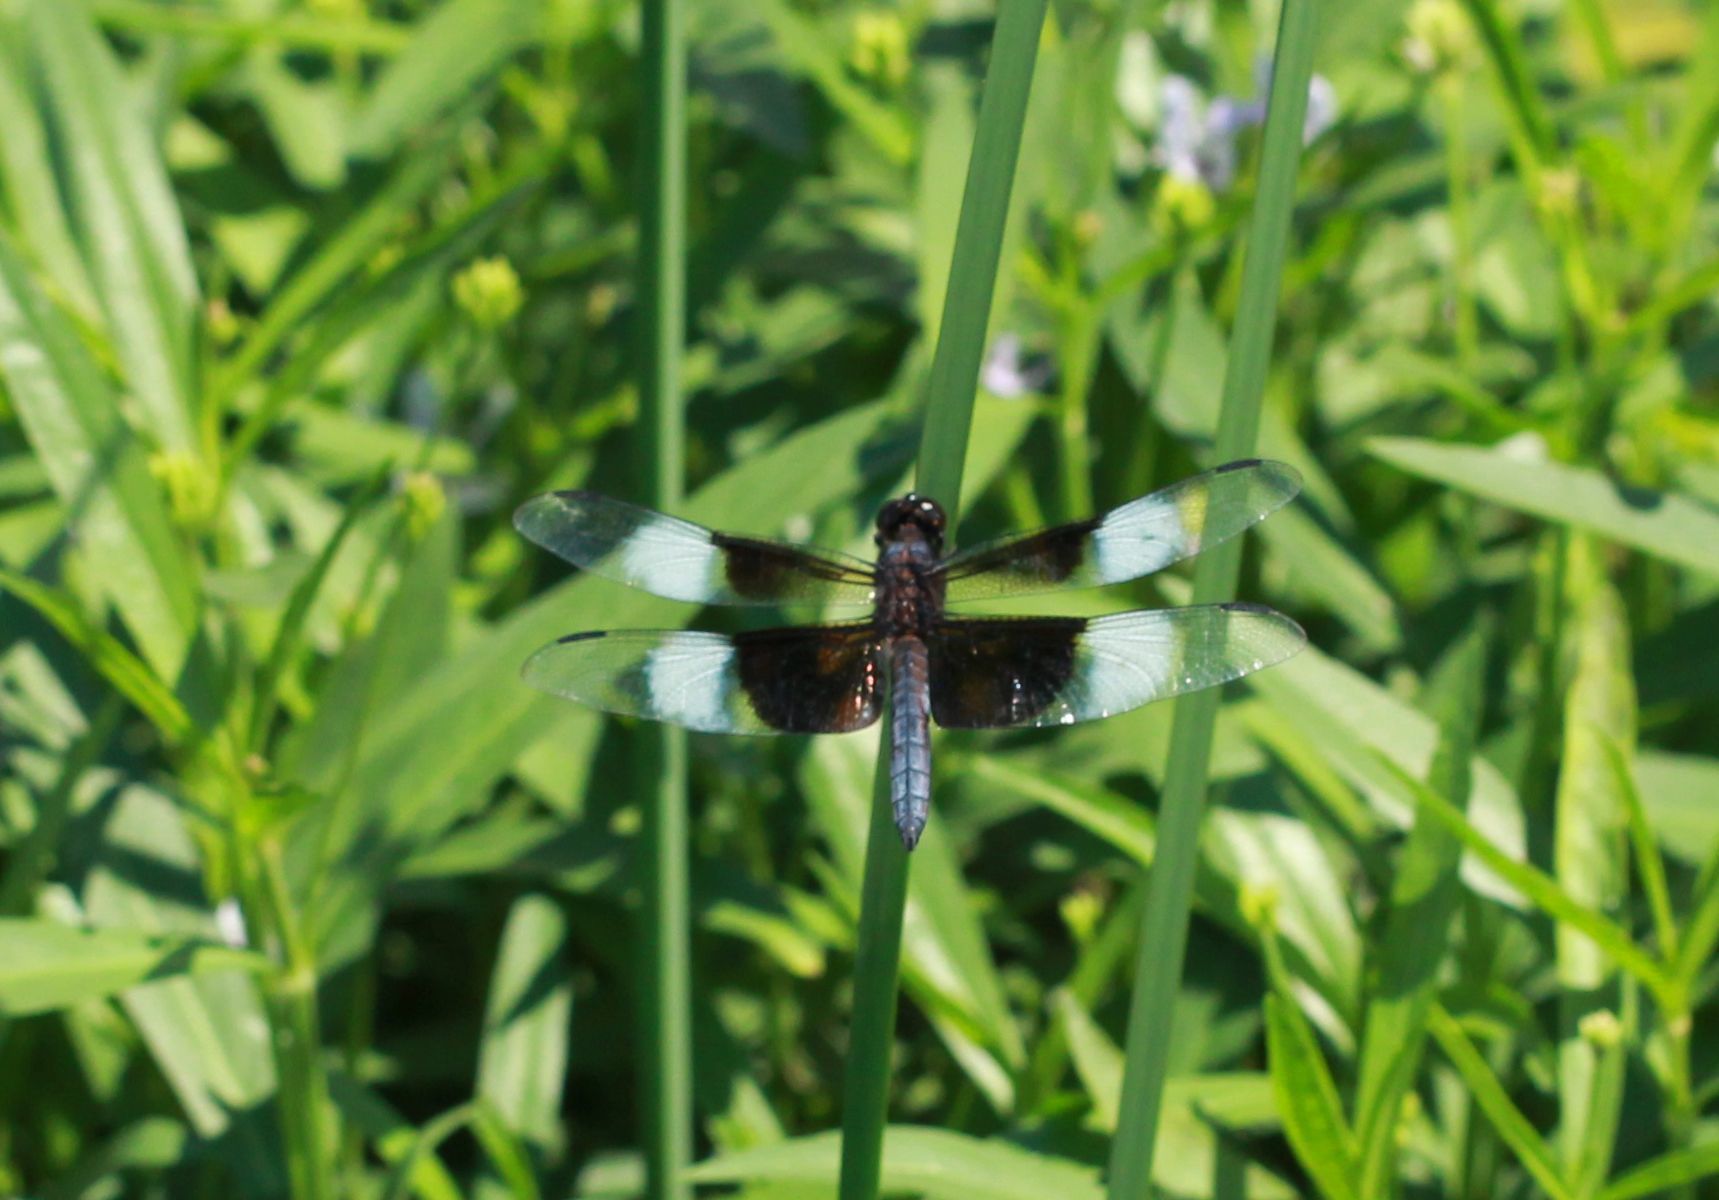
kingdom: Animalia
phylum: Arthropoda
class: Insecta
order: Odonata
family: Libellulidae
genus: Libellula
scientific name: Libellula luctuosa
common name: Widow skimmer
